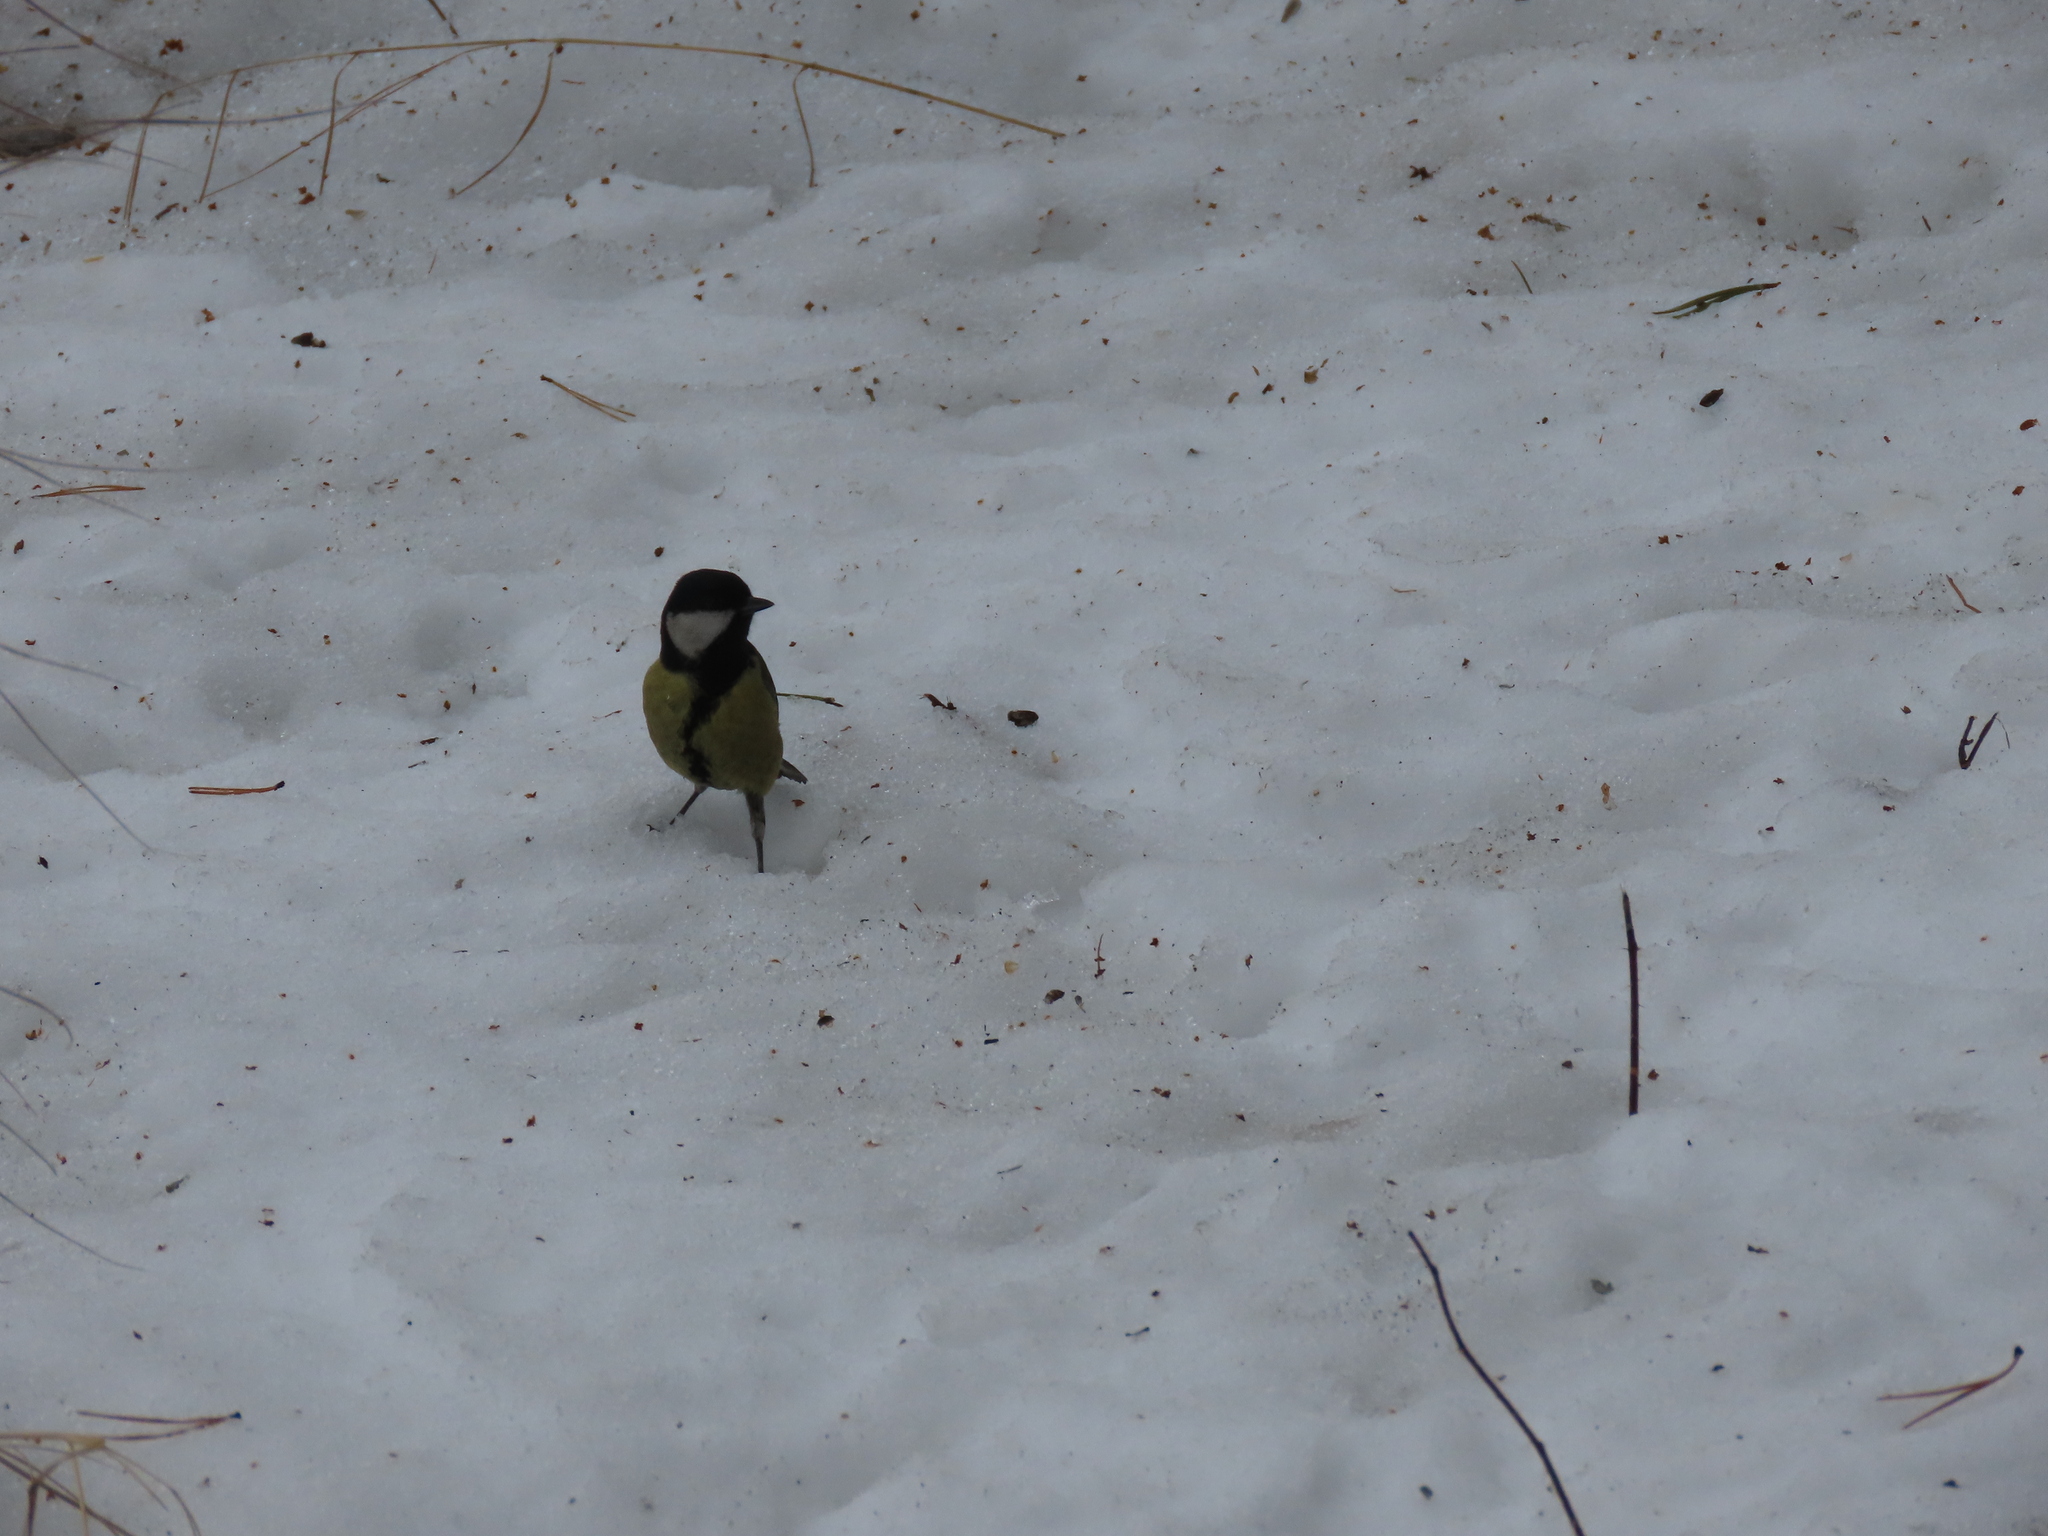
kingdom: Animalia
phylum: Chordata
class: Aves
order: Passeriformes
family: Paridae
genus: Parus
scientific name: Parus major
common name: Great tit
